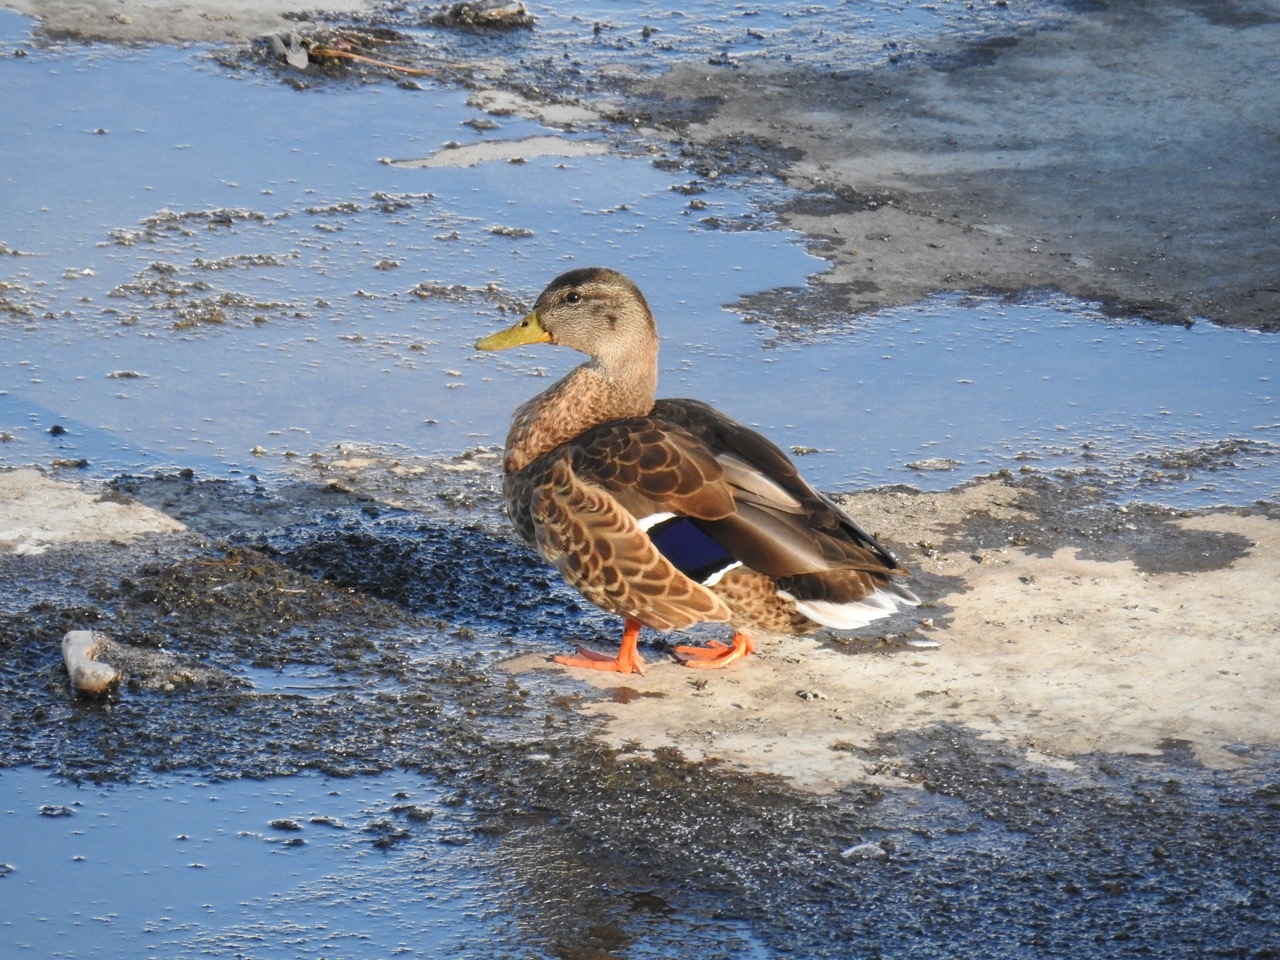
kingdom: Animalia
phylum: Chordata
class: Aves
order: Anseriformes
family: Anatidae
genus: Anas
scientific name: Anas platyrhynchos
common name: Mallard
